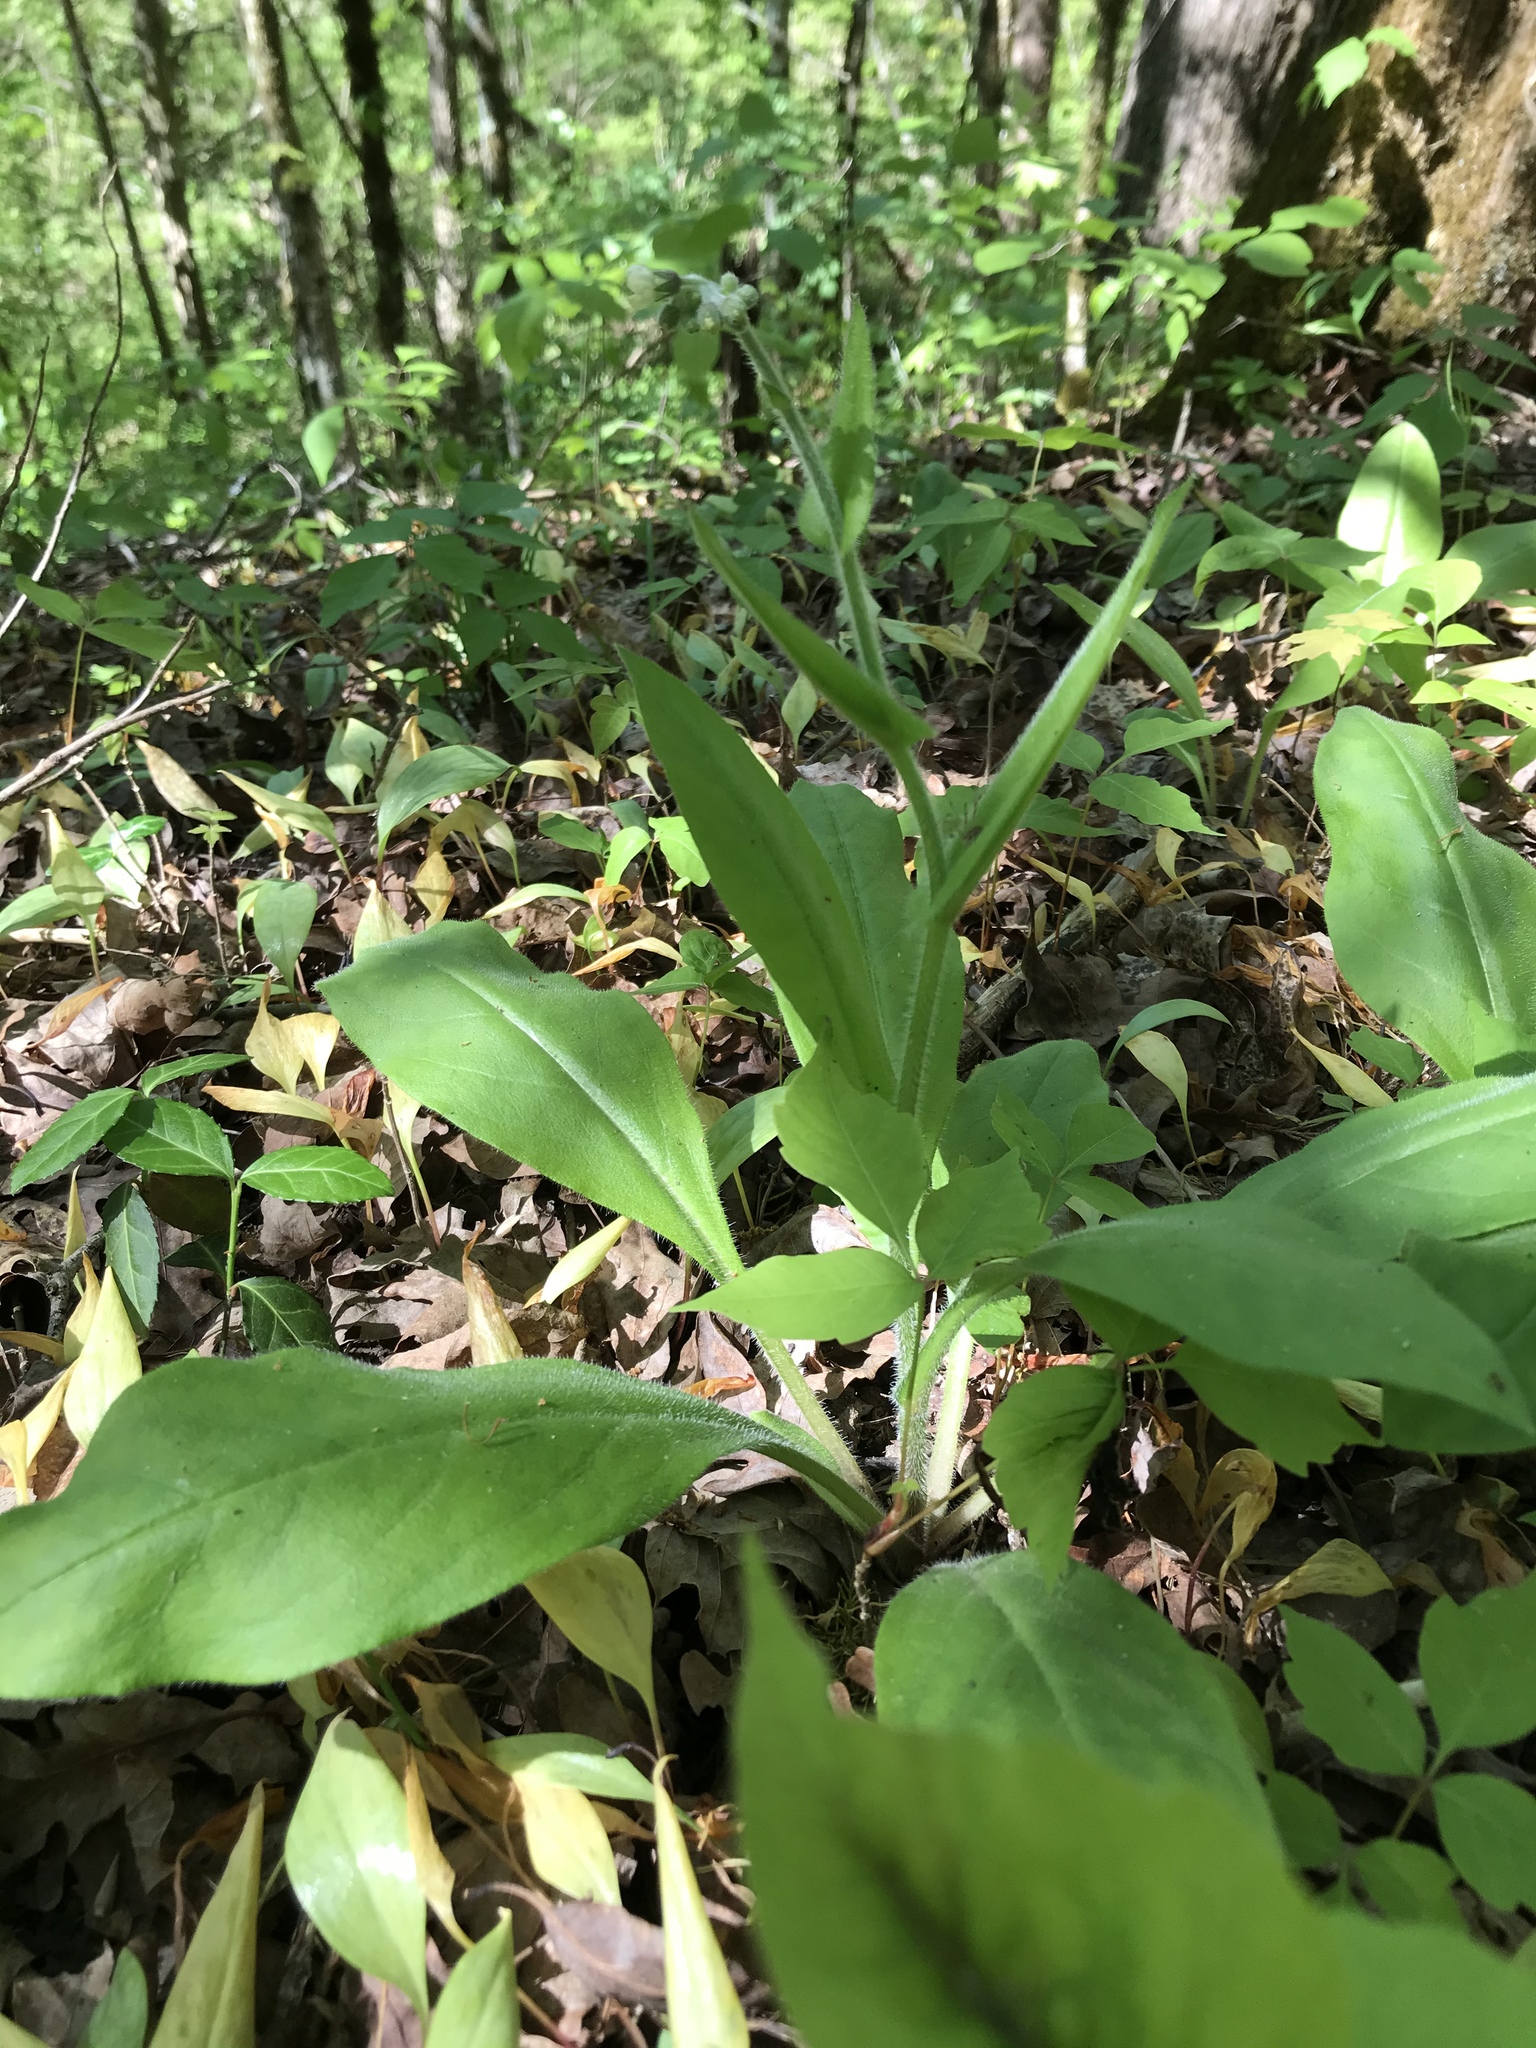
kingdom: Plantae
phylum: Tracheophyta
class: Magnoliopsida
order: Boraginales
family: Boraginaceae
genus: Andersonglossum
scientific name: Andersonglossum virginianum
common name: Wild comfrey
